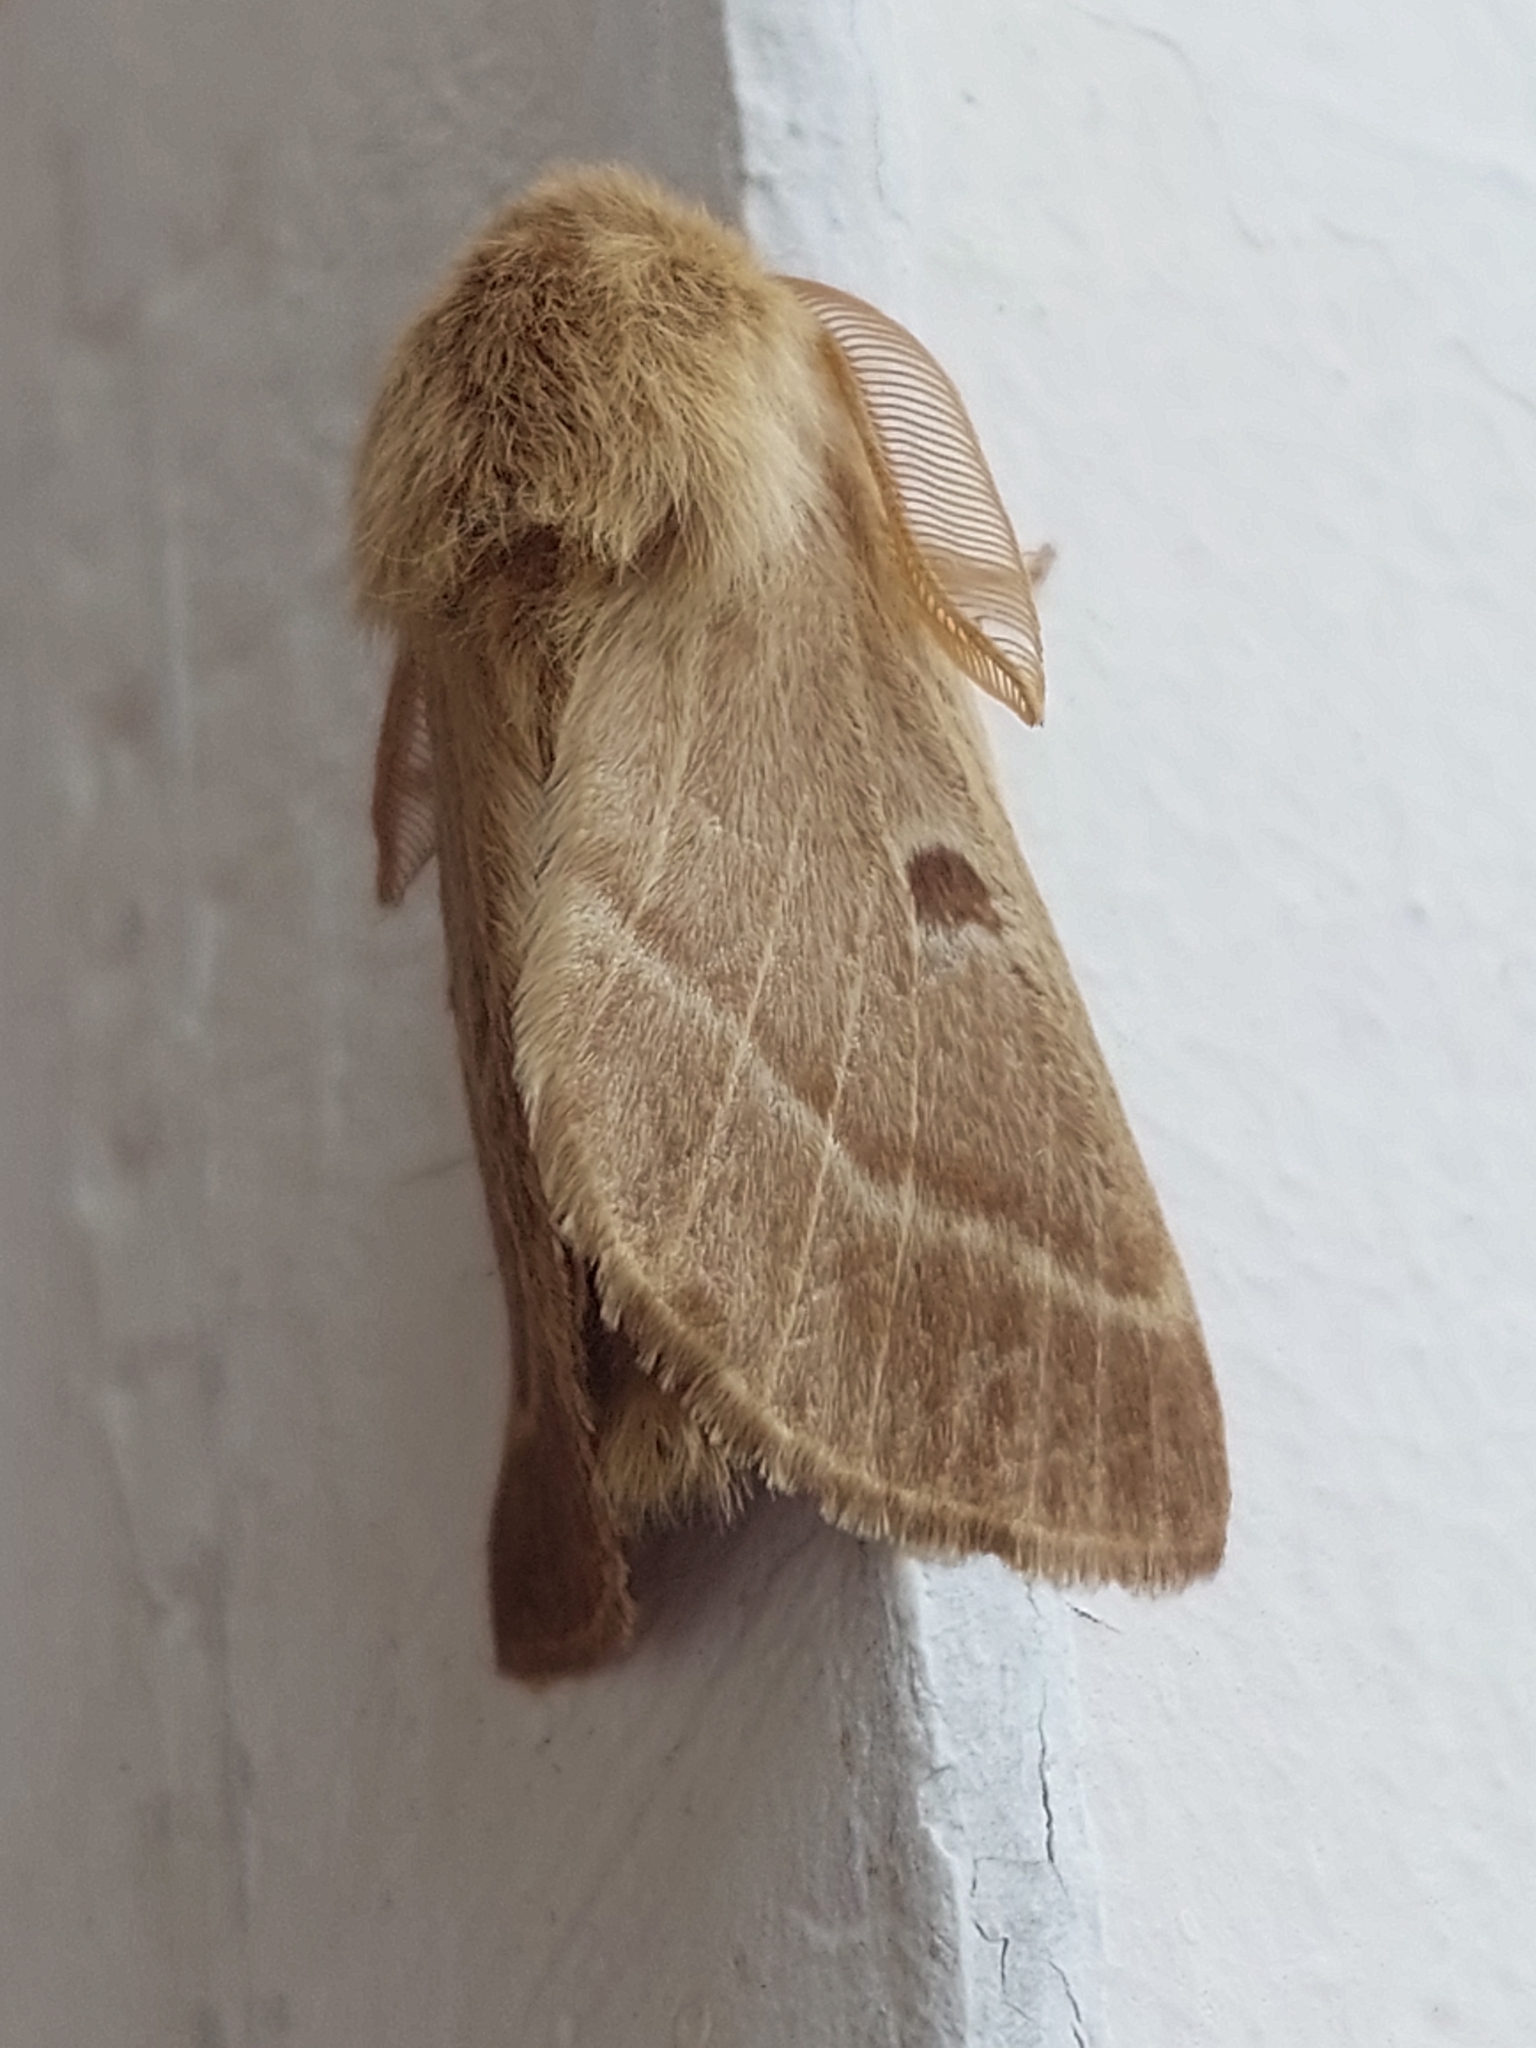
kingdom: Animalia
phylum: Arthropoda
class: Insecta
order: Lepidoptera
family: Brahmaeidae
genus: Lemonia
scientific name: Lemonia balcanica
